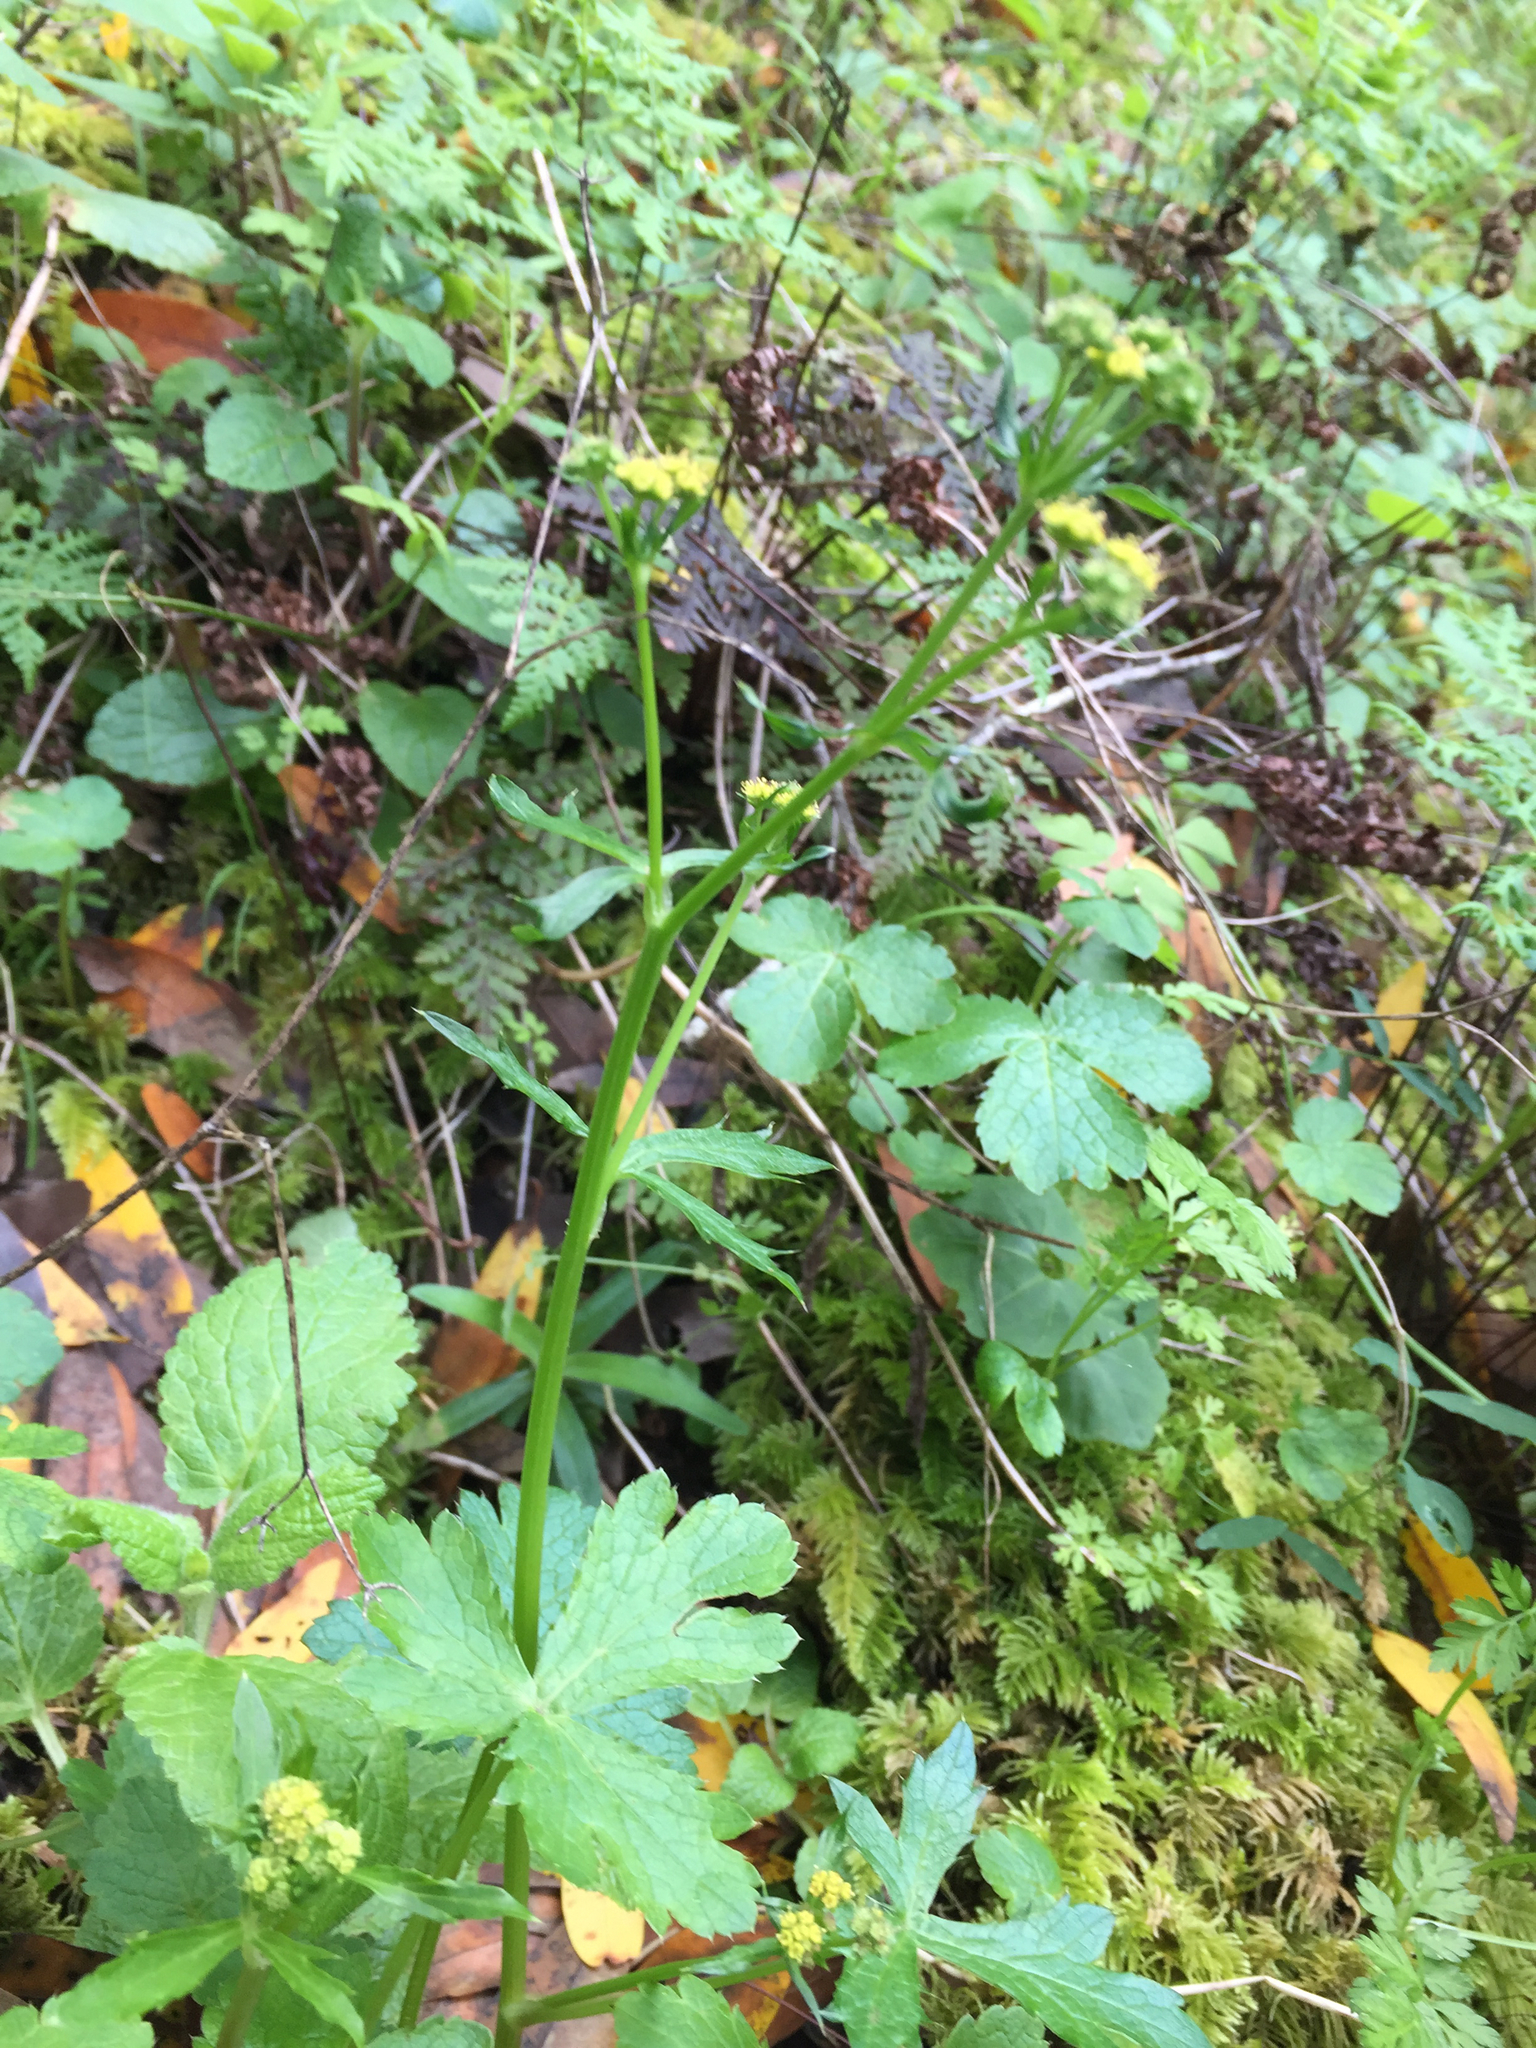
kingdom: Plantae
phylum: Tracheophyta
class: Magnoliopsida
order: Apiales
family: Apiaceae
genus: Sanicula
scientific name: Sanicula crassicaulis
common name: Western snakeroot
